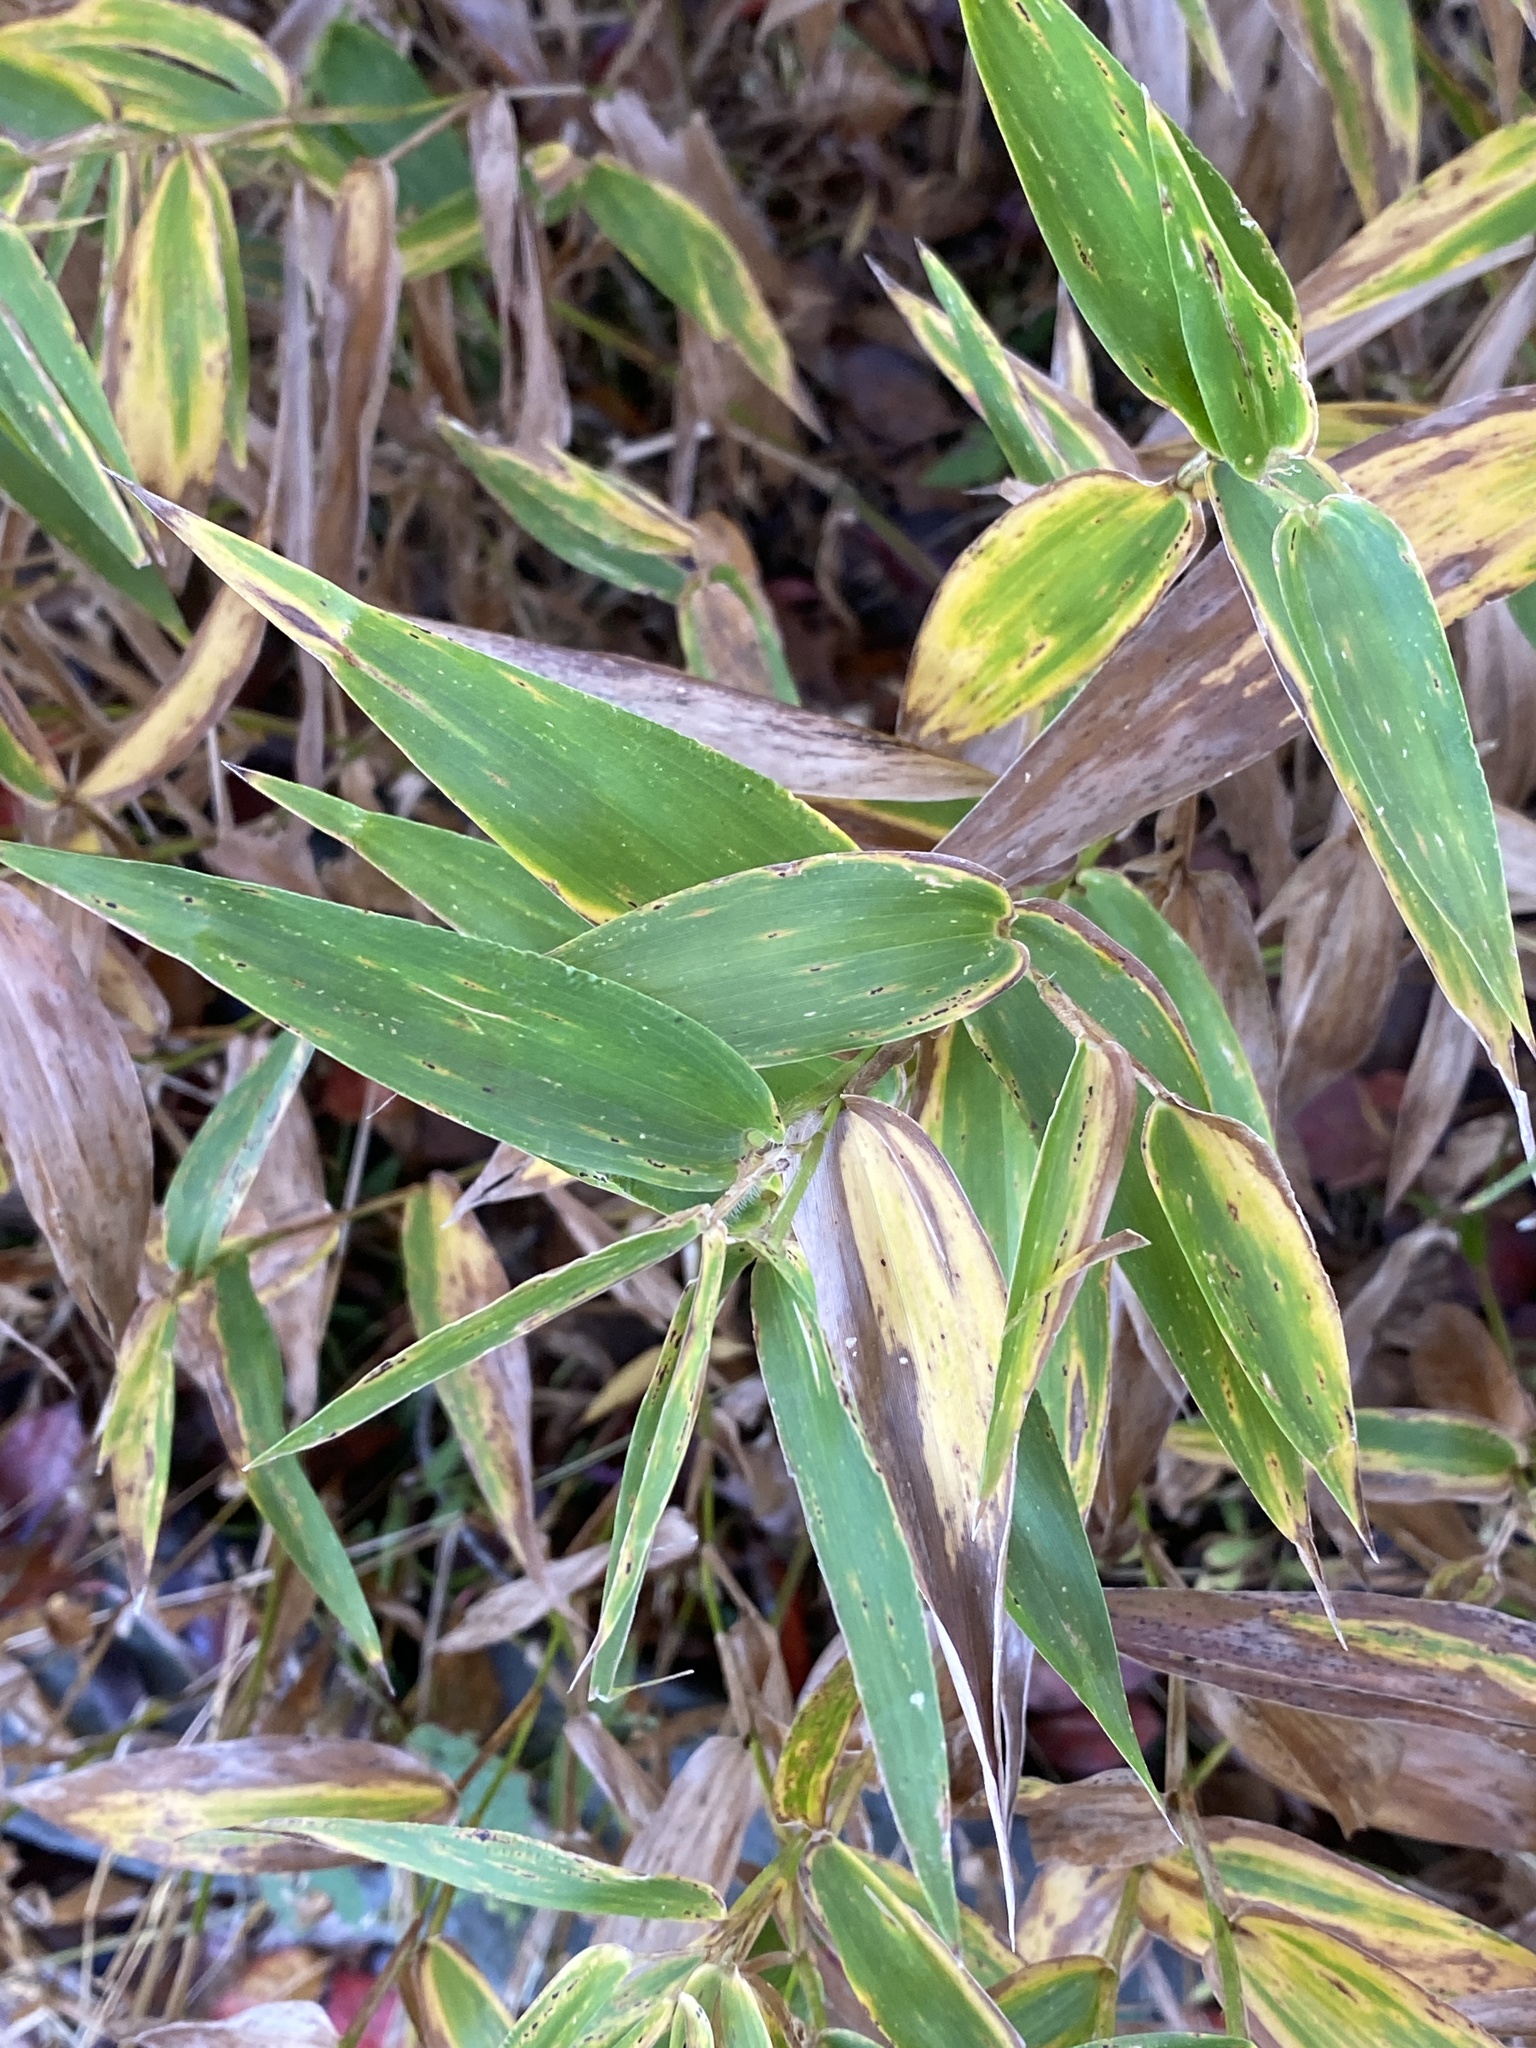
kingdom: Plantae
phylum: Tracheophyta
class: Liliopsida
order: Poales
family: Poaceae
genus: Dichanthelium
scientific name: Dichanthelium clandestinum
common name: Deer-tongue grass
